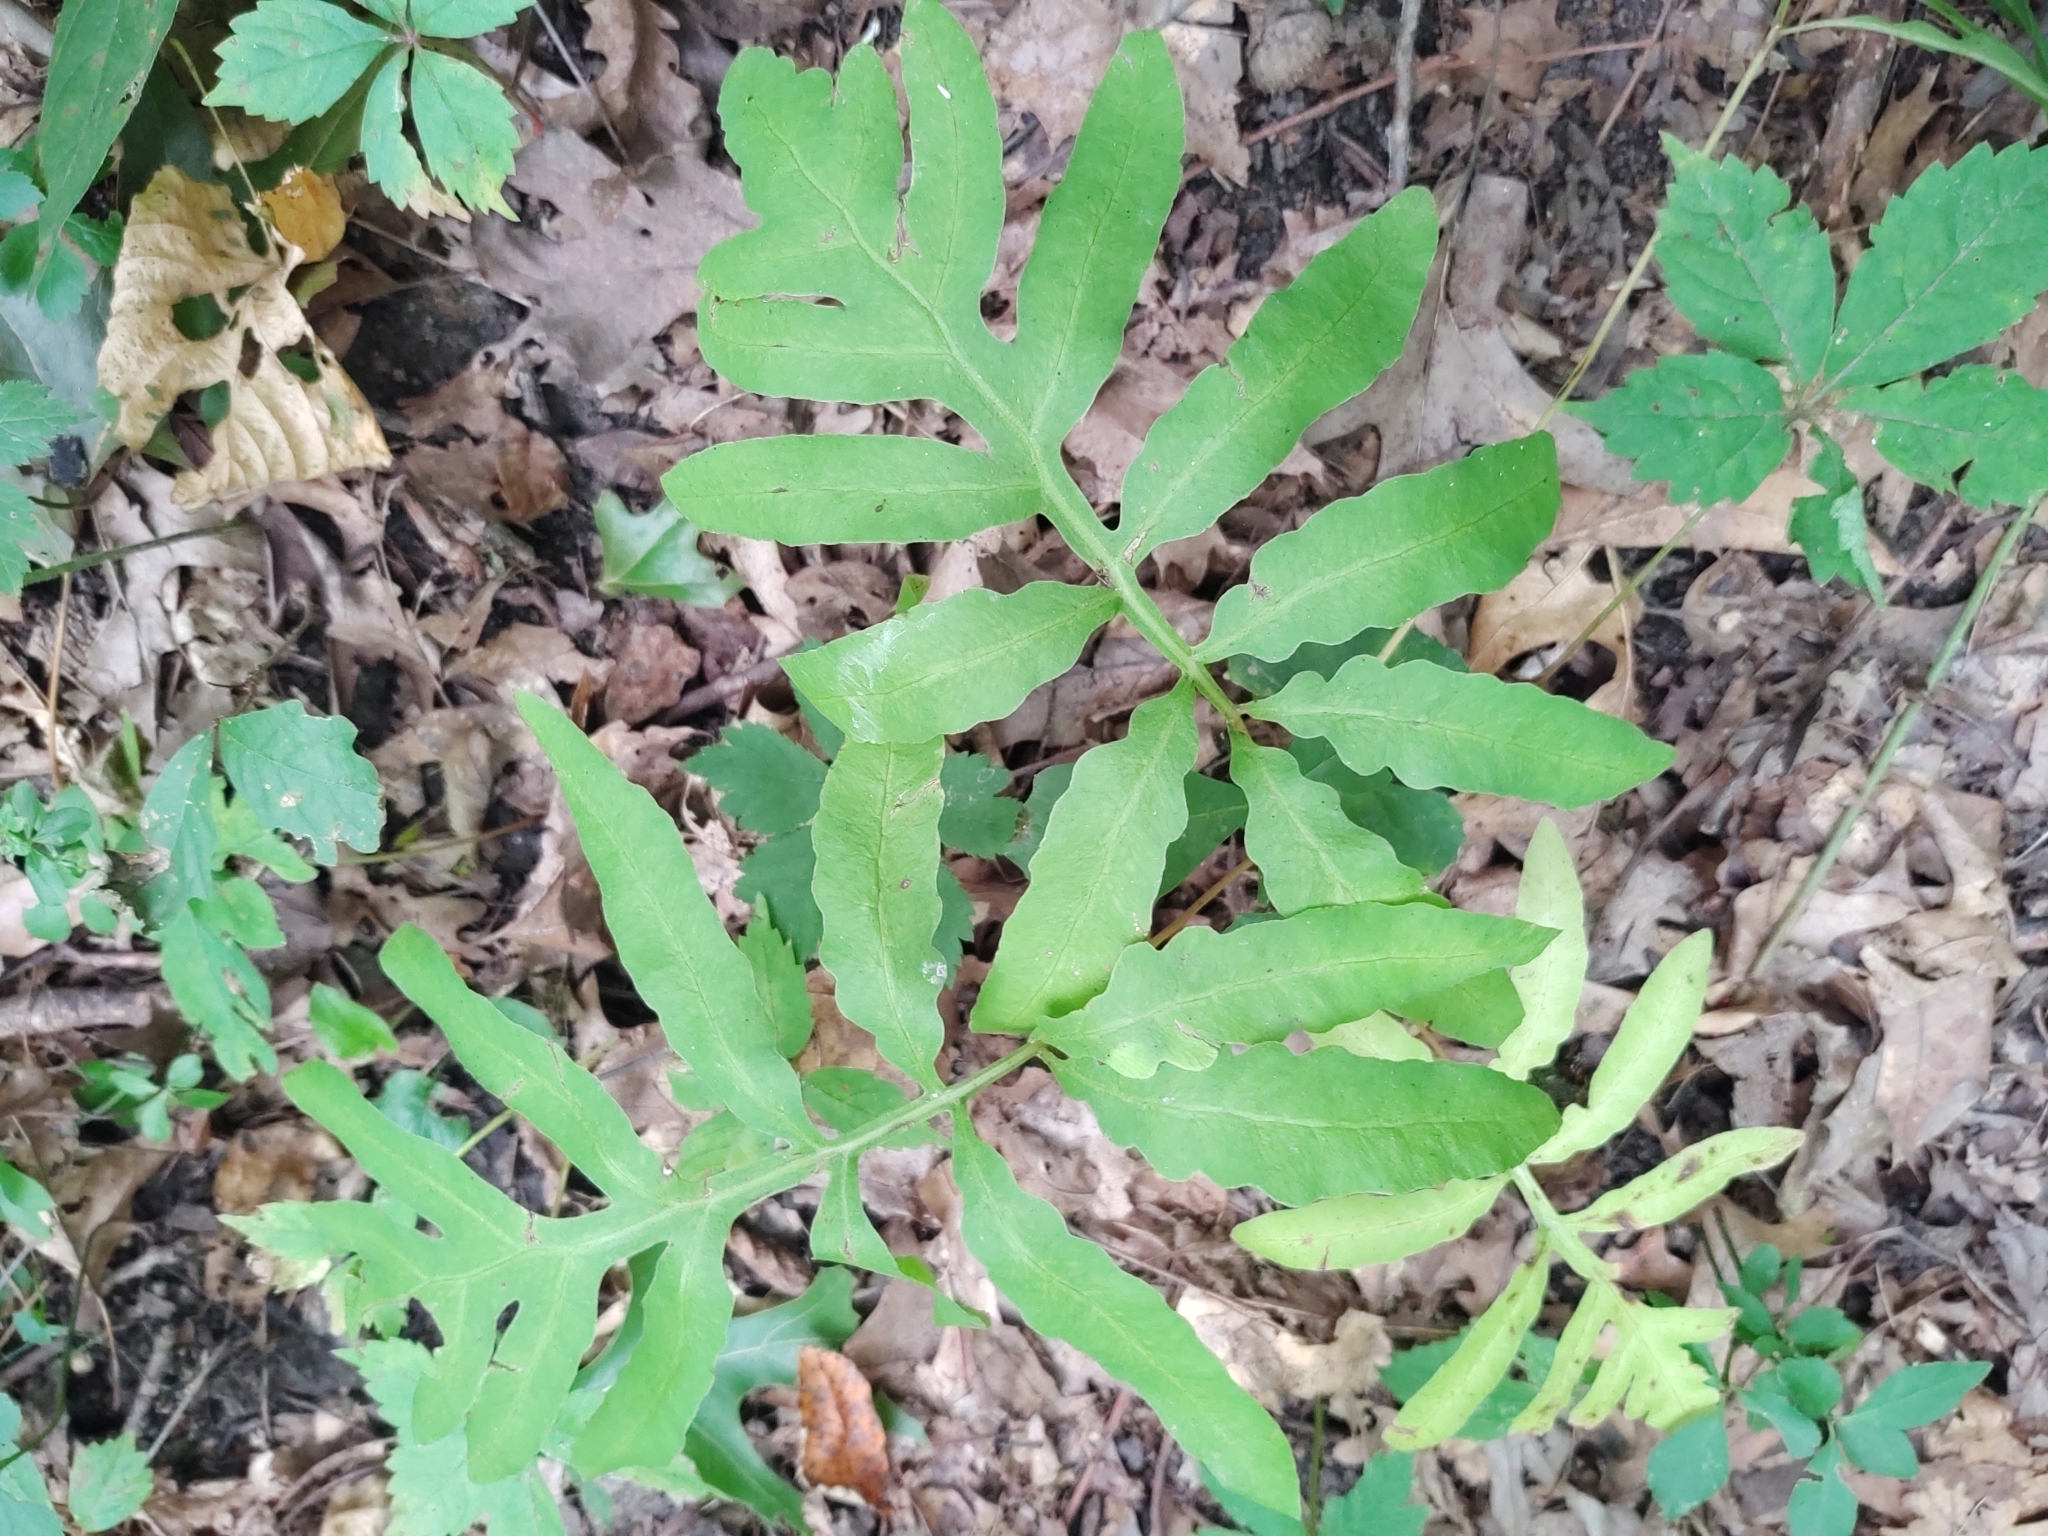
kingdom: Plantae
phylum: Tracheophyta
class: Polypodiopsida
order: Polypodiales
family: Onocleaceae
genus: Onoclea
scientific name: Onoclea sensibilis
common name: Sensitive fern
